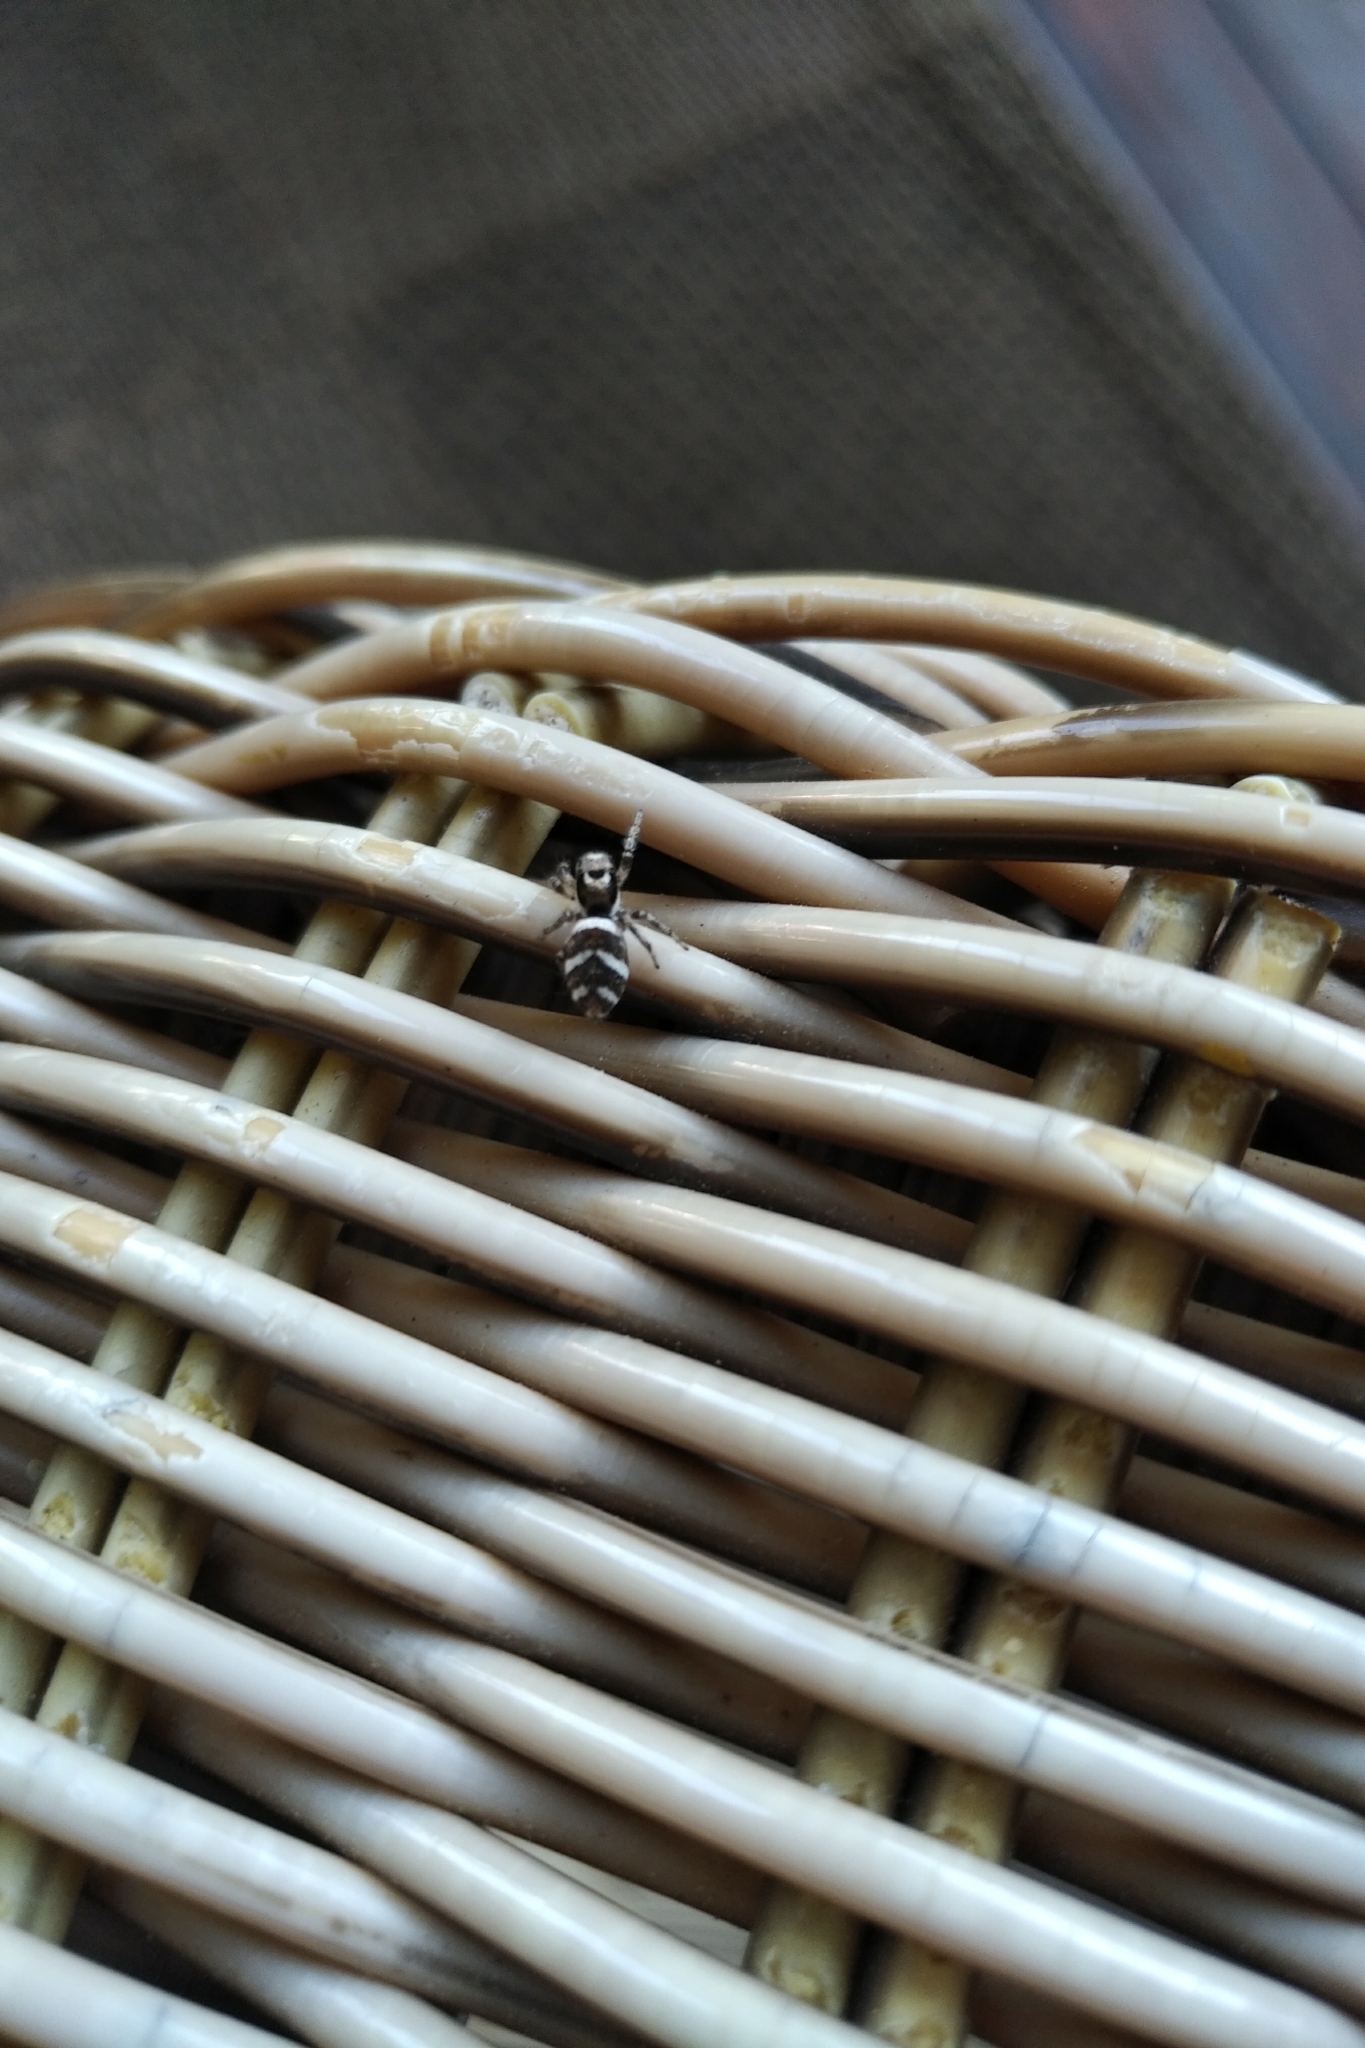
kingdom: Animalia
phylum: Arthropoda
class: Arachnida
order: Araneae
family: Salticidae
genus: Salticus
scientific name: Salticus scenicus
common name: Zebra jumper
